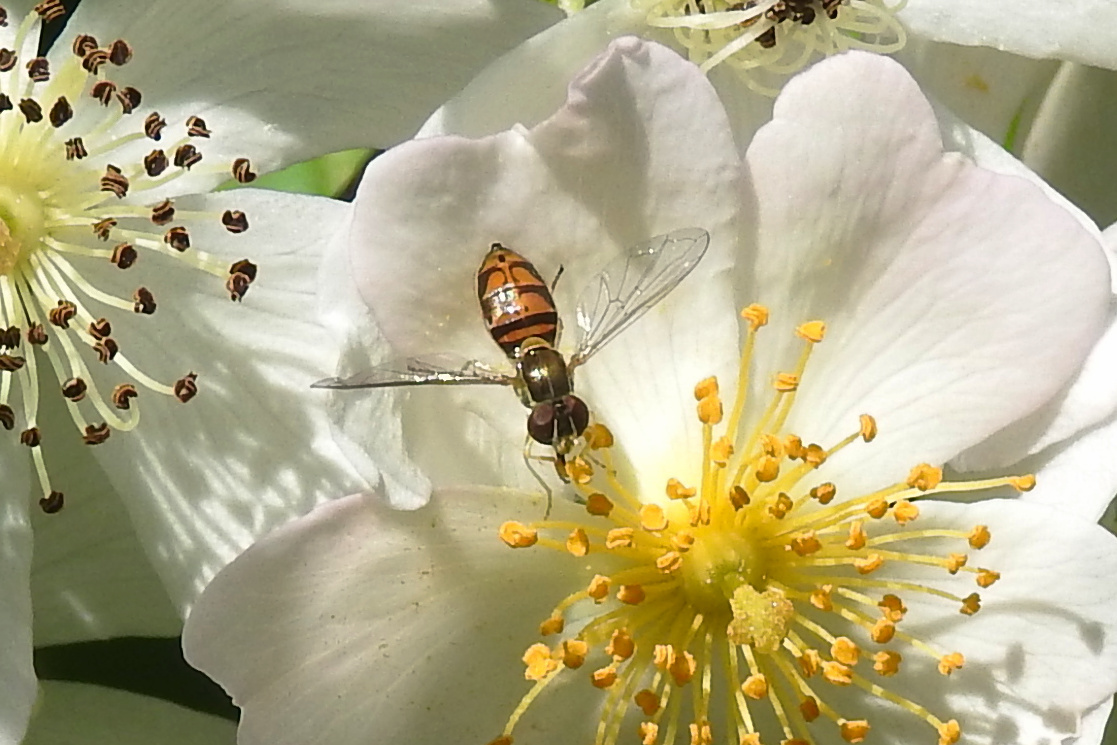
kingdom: Animalia
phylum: Arthropoda
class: Insecta
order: Diptera
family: Syrphidae
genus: Toxomerus
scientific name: Toxomerus marginatus
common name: Syrphid fly
